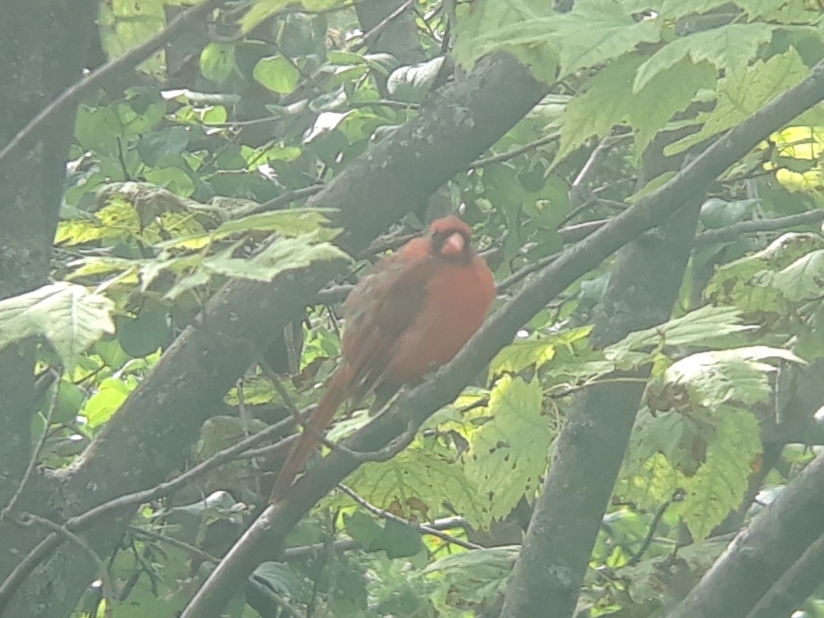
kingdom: Animalia
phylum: Chordata
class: Aves
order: Passeriformes
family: Cardinalidae
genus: Cardinalis
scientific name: Cardinalis cardinalis
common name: Northern cardinal
